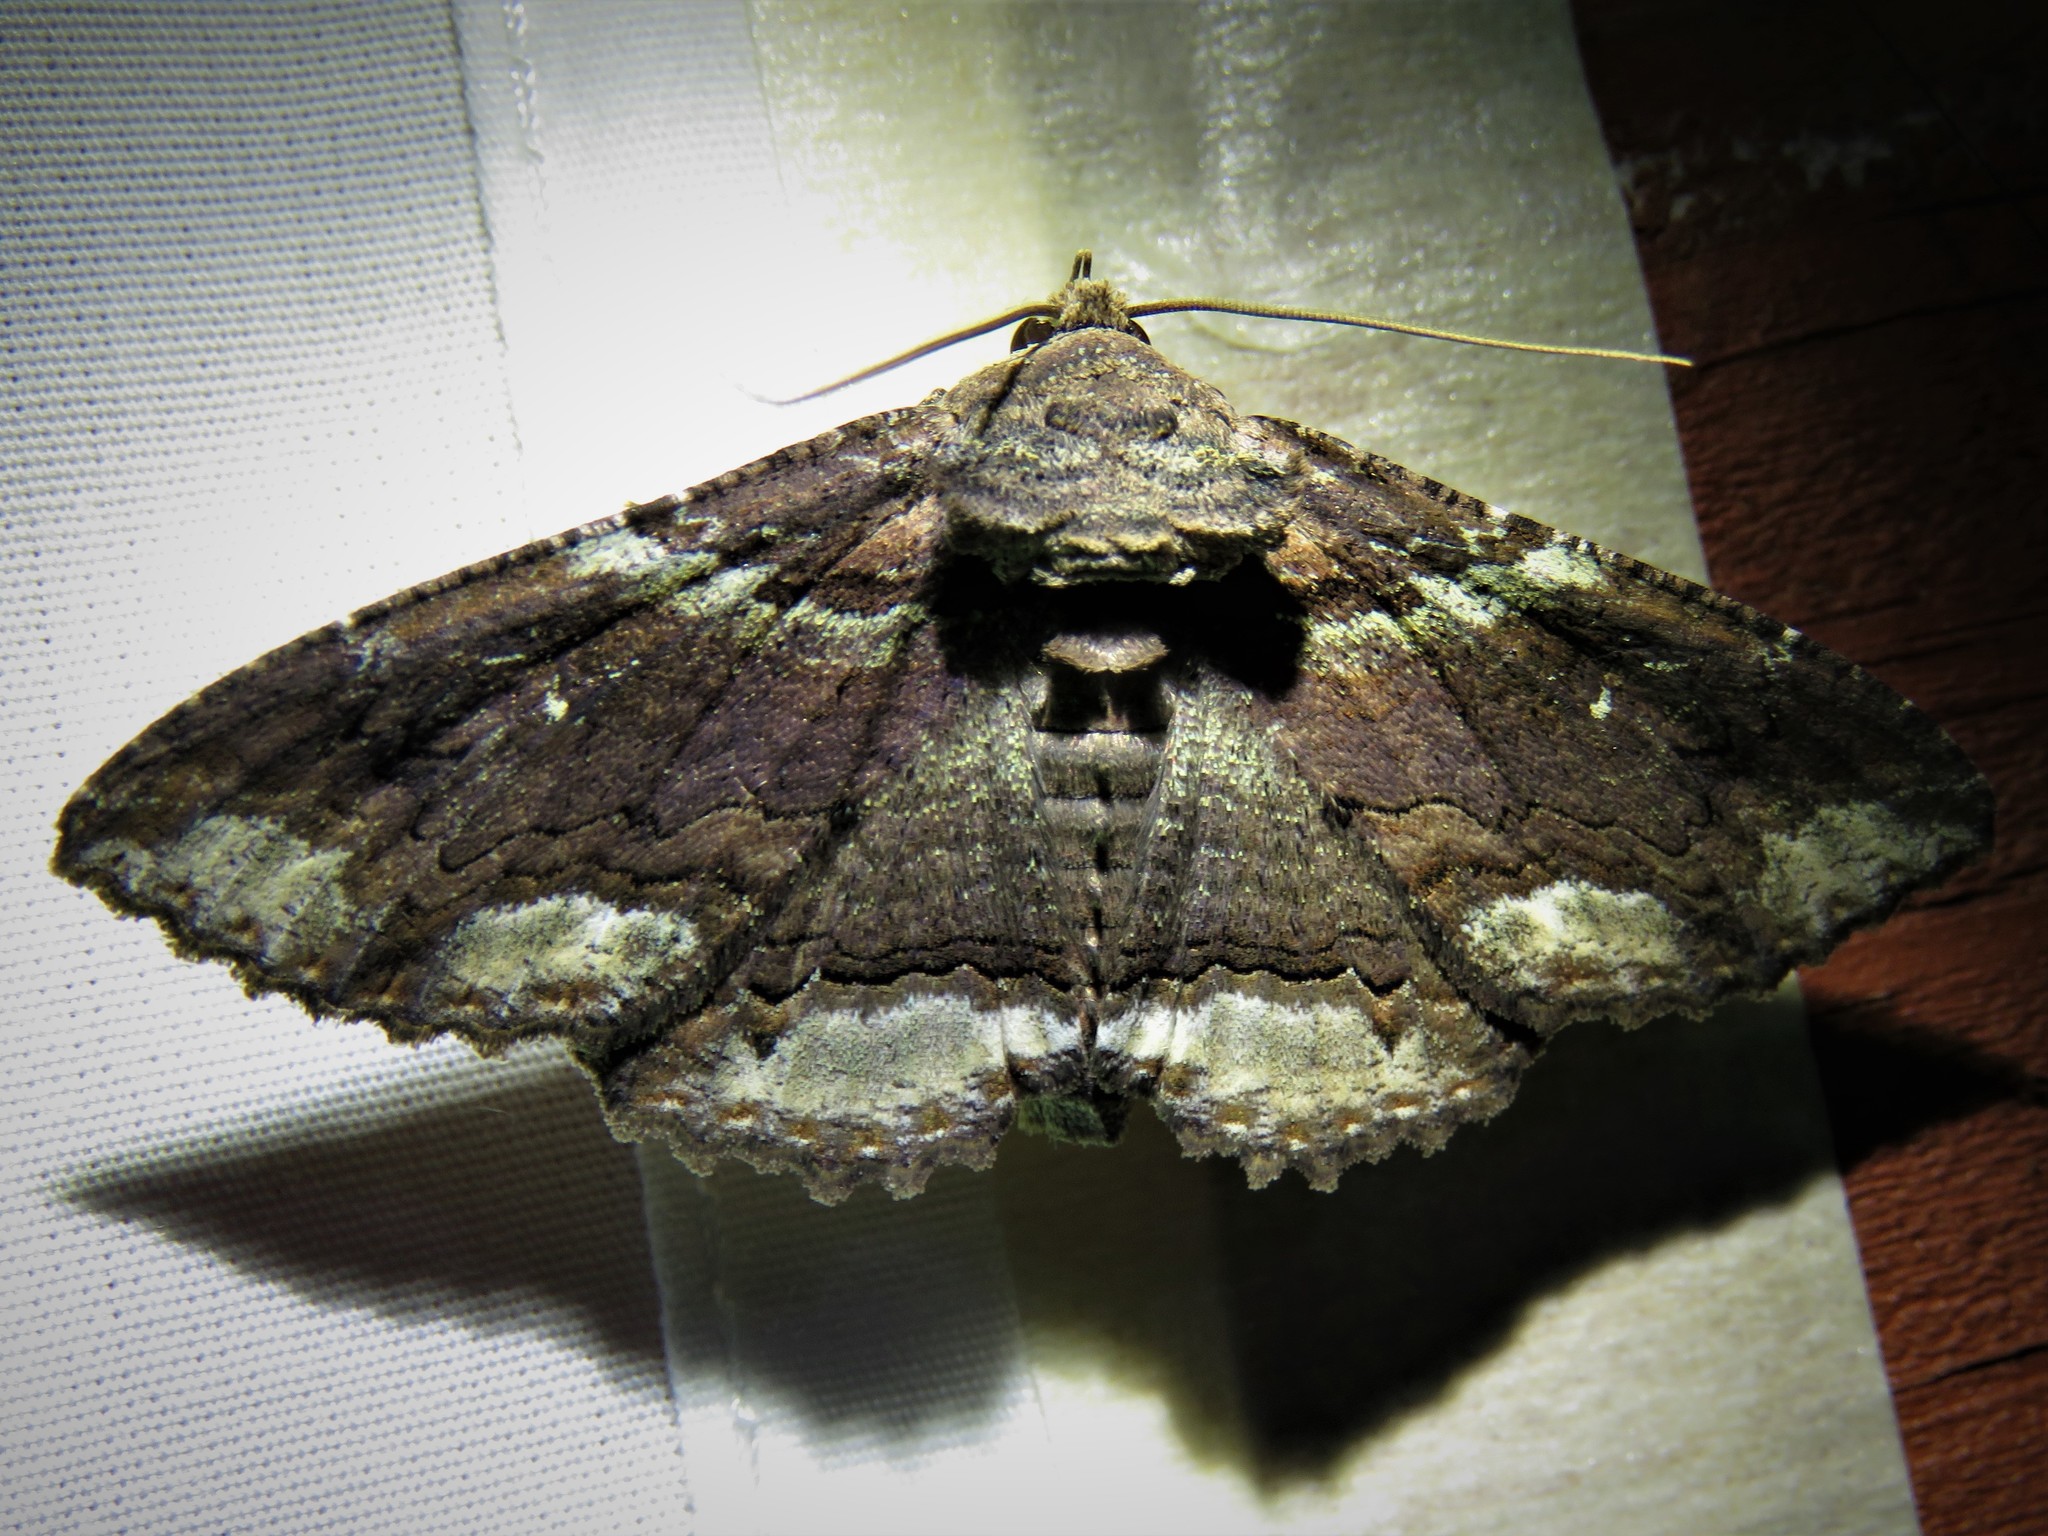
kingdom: Animalia
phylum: Arthropoda
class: Insecta
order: Lepidoptera
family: Erebidae
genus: Zale
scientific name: Zale lunata
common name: Lunate zale moth
